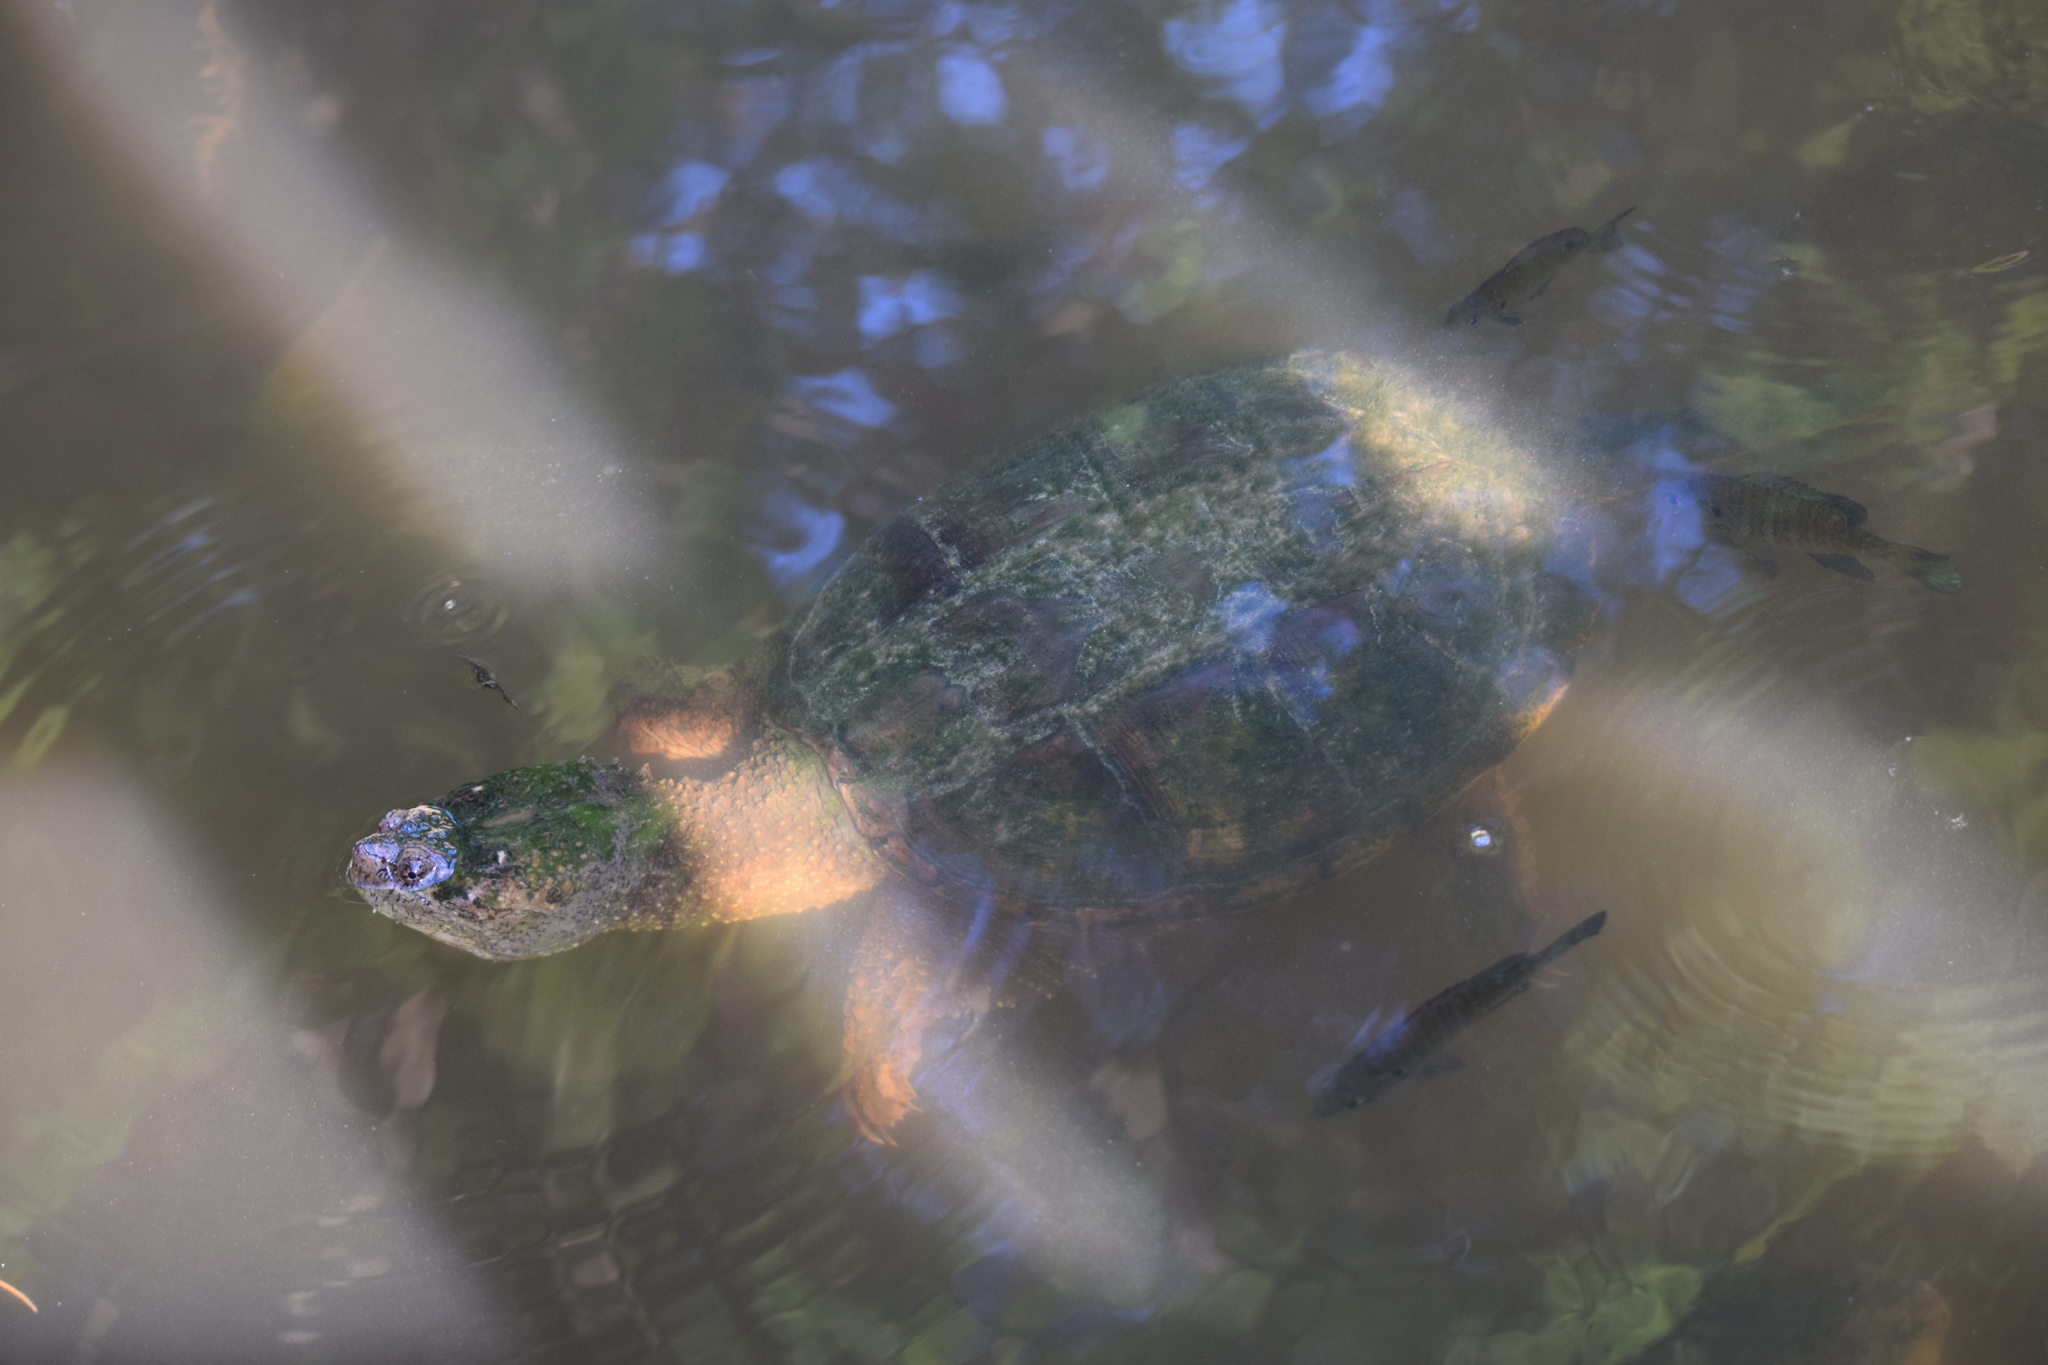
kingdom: Animalia
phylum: Chordata
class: Testudines
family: Chelydridae
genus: Chelydra
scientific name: Chelydra serpentina
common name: Common snapping turtle
